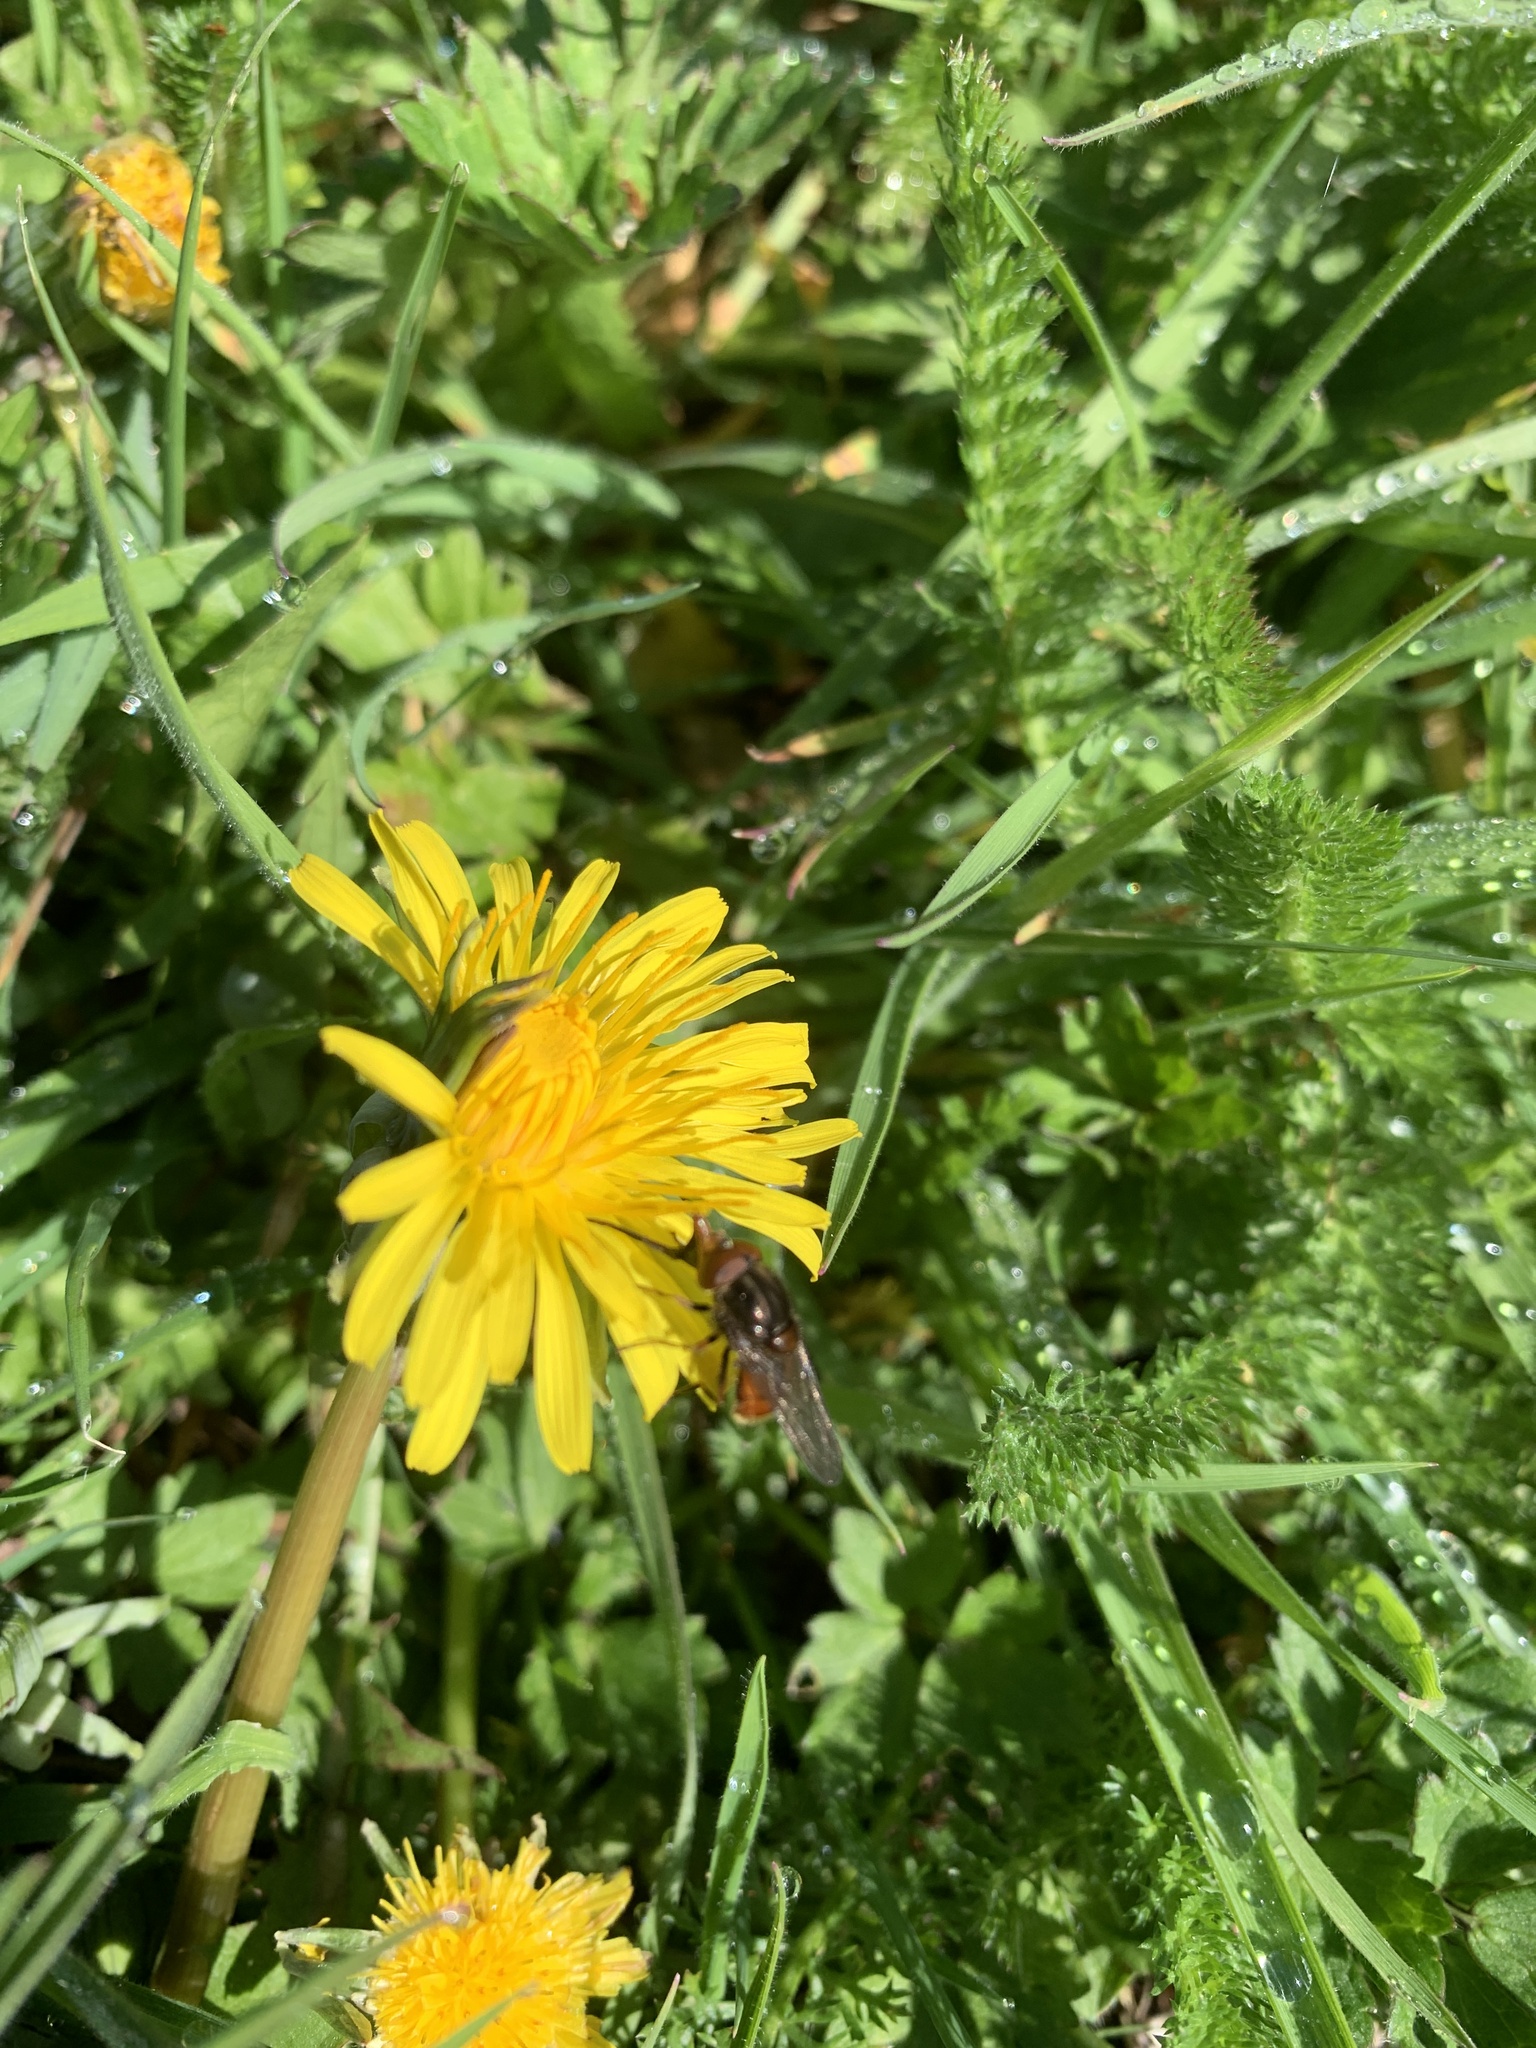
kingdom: Plantae
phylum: Tracheophyta
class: Magnoliopsida
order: Asterales
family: Asteraceae
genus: Taraxacum
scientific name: Taraxacum officinale
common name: Common dandelion
